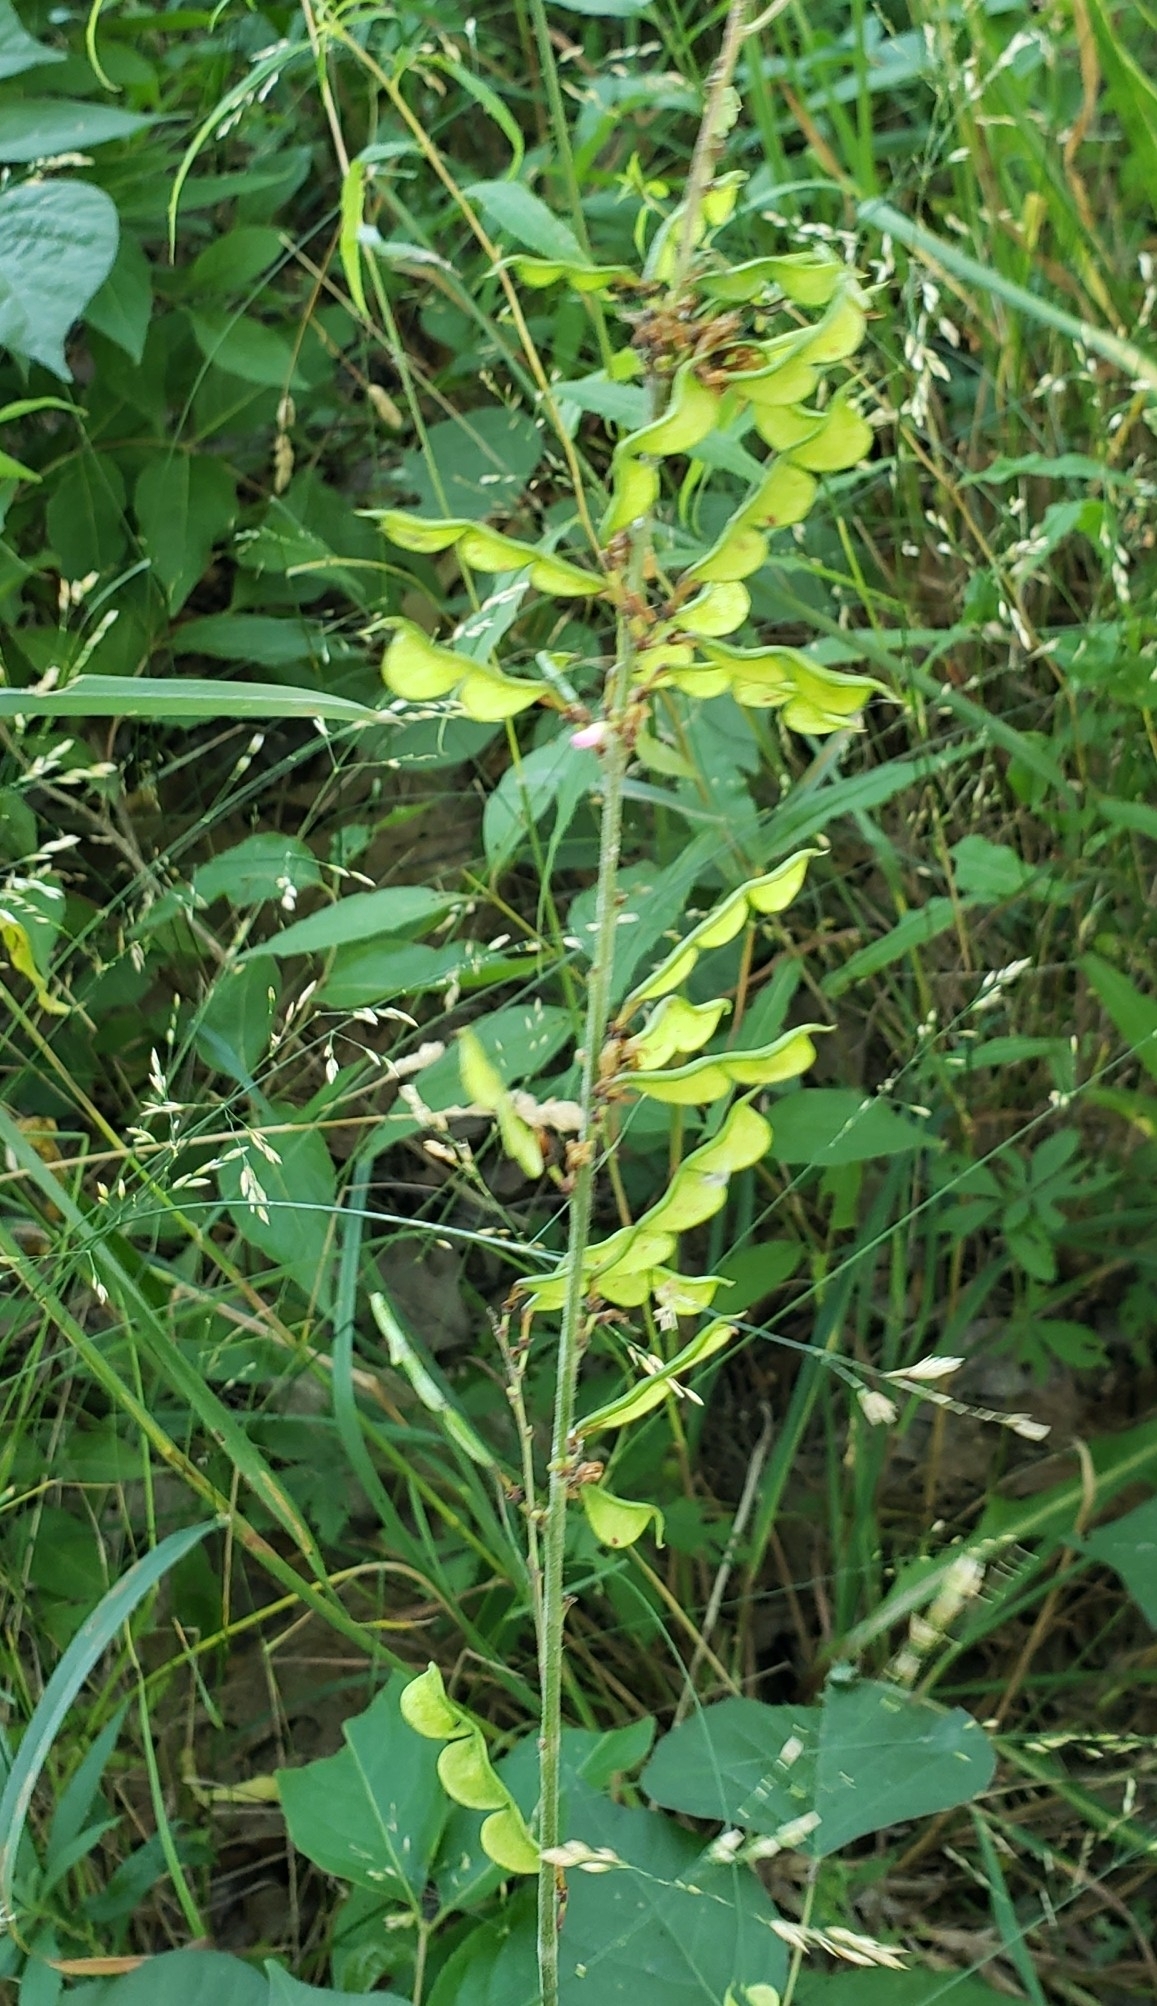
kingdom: Plantae
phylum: Tracheophyta
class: Magnoliopsida
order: Fabales
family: Fabaceae
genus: Hylodesmum
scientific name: Hylodesmum glutinosum
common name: Clustered-leaved tick-trefoil
